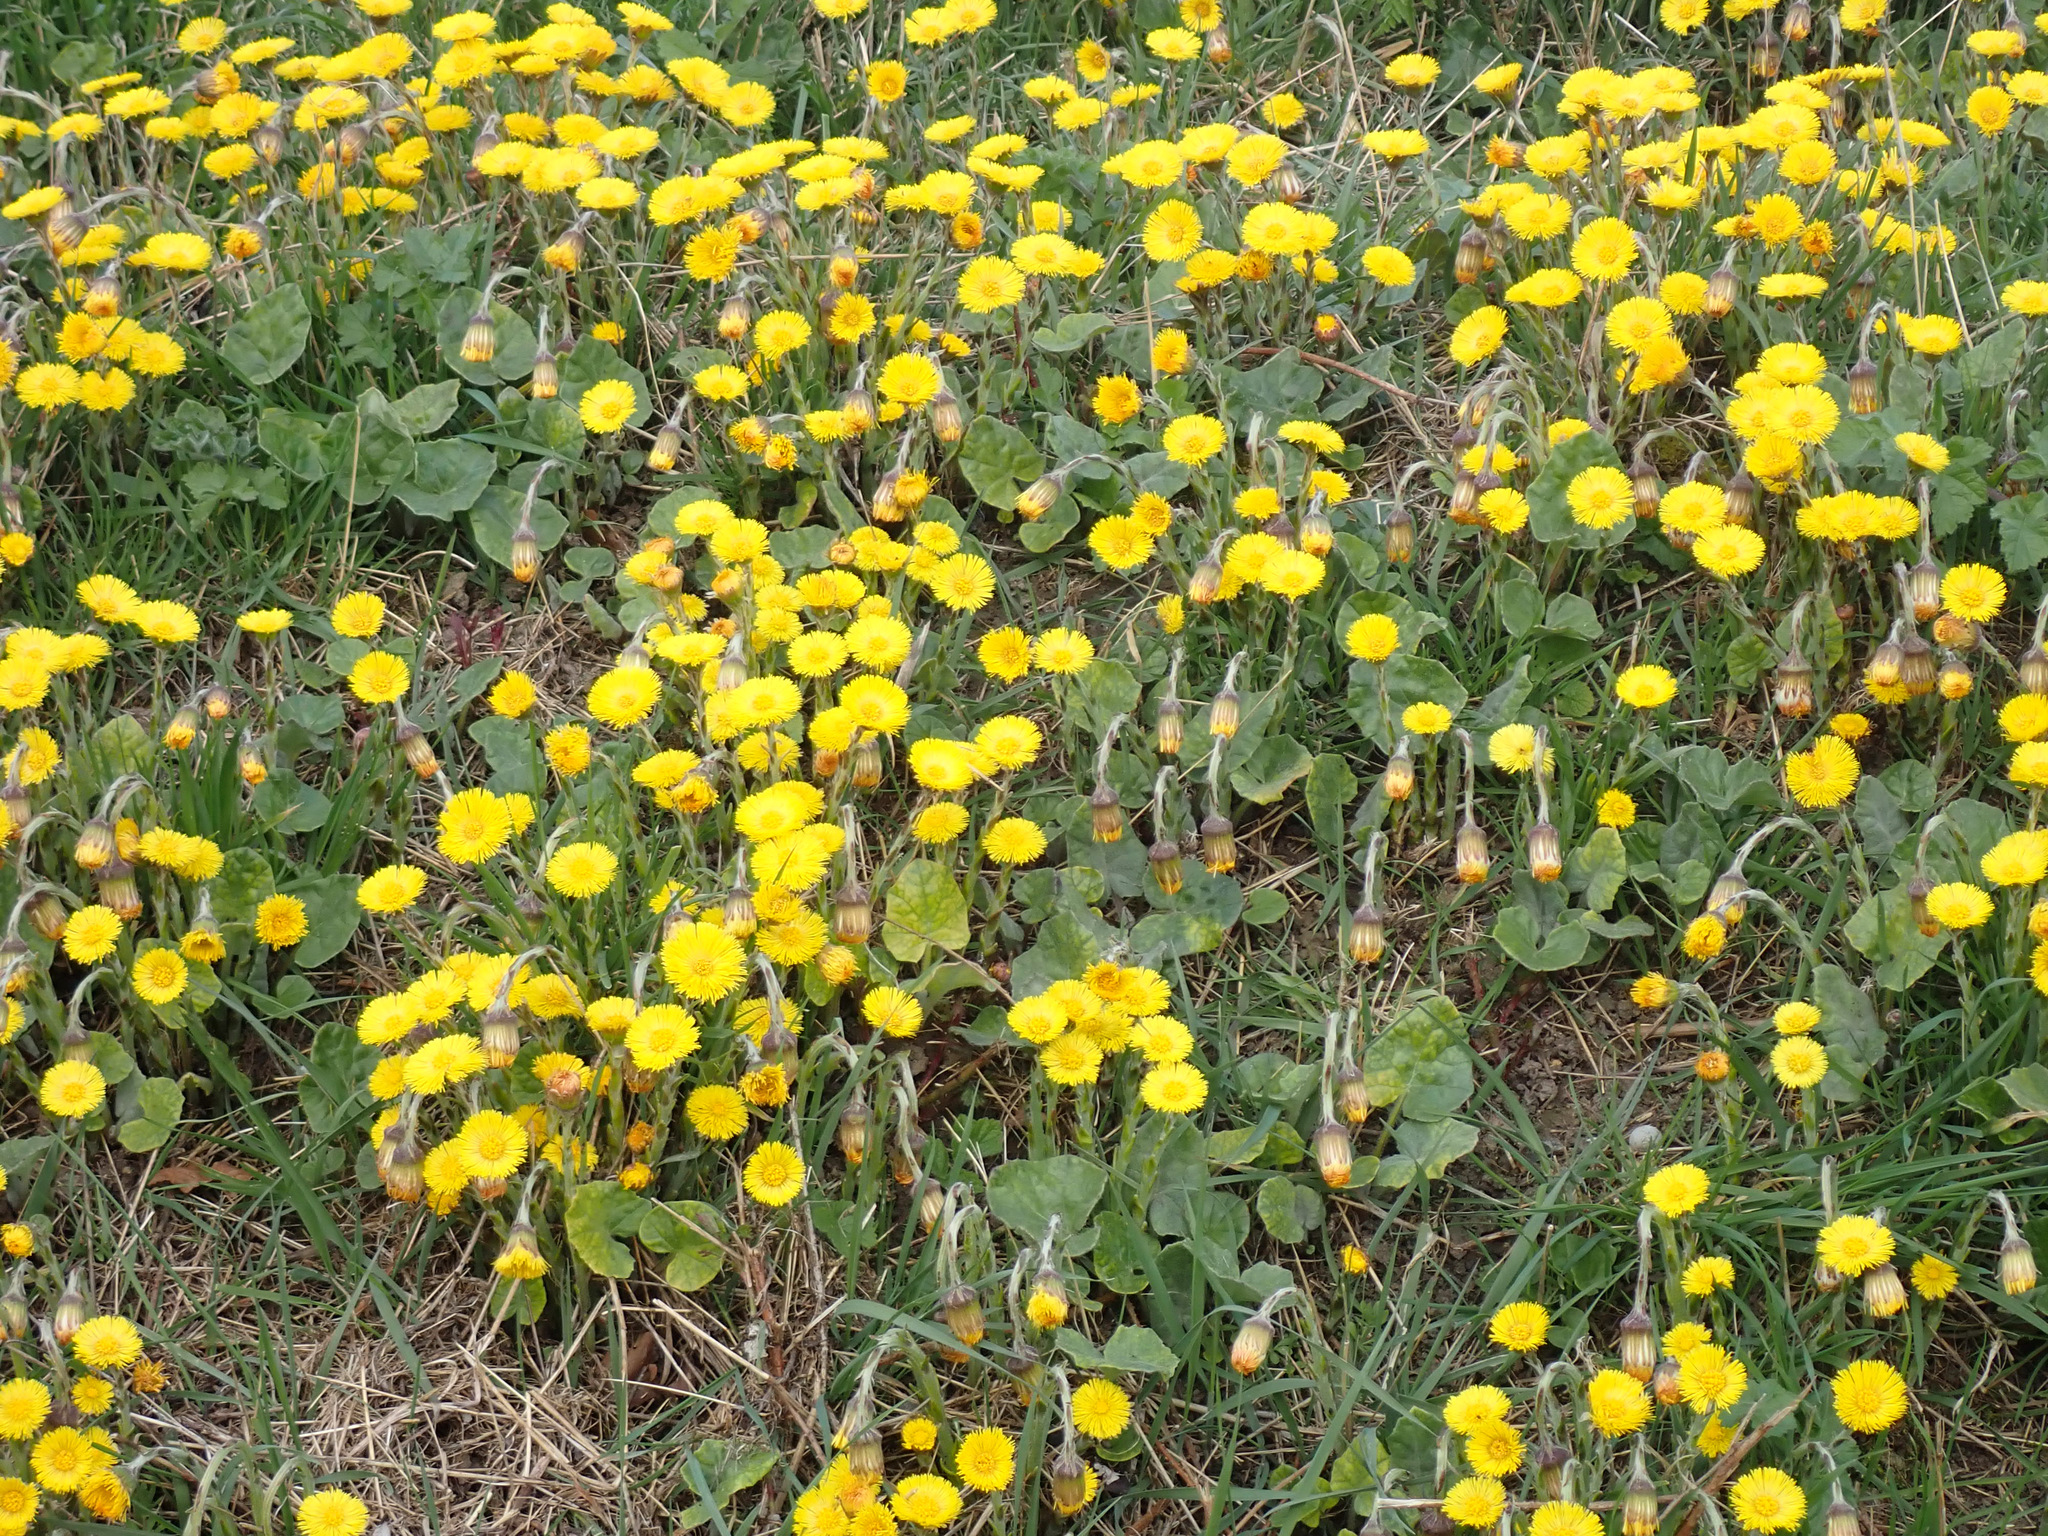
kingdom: Plantae
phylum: Tracheophyta
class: Magnoliopsida
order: Asterales
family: Asteraceae
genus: Tussilago
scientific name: Tussilago farfara
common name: Coltsfoot
